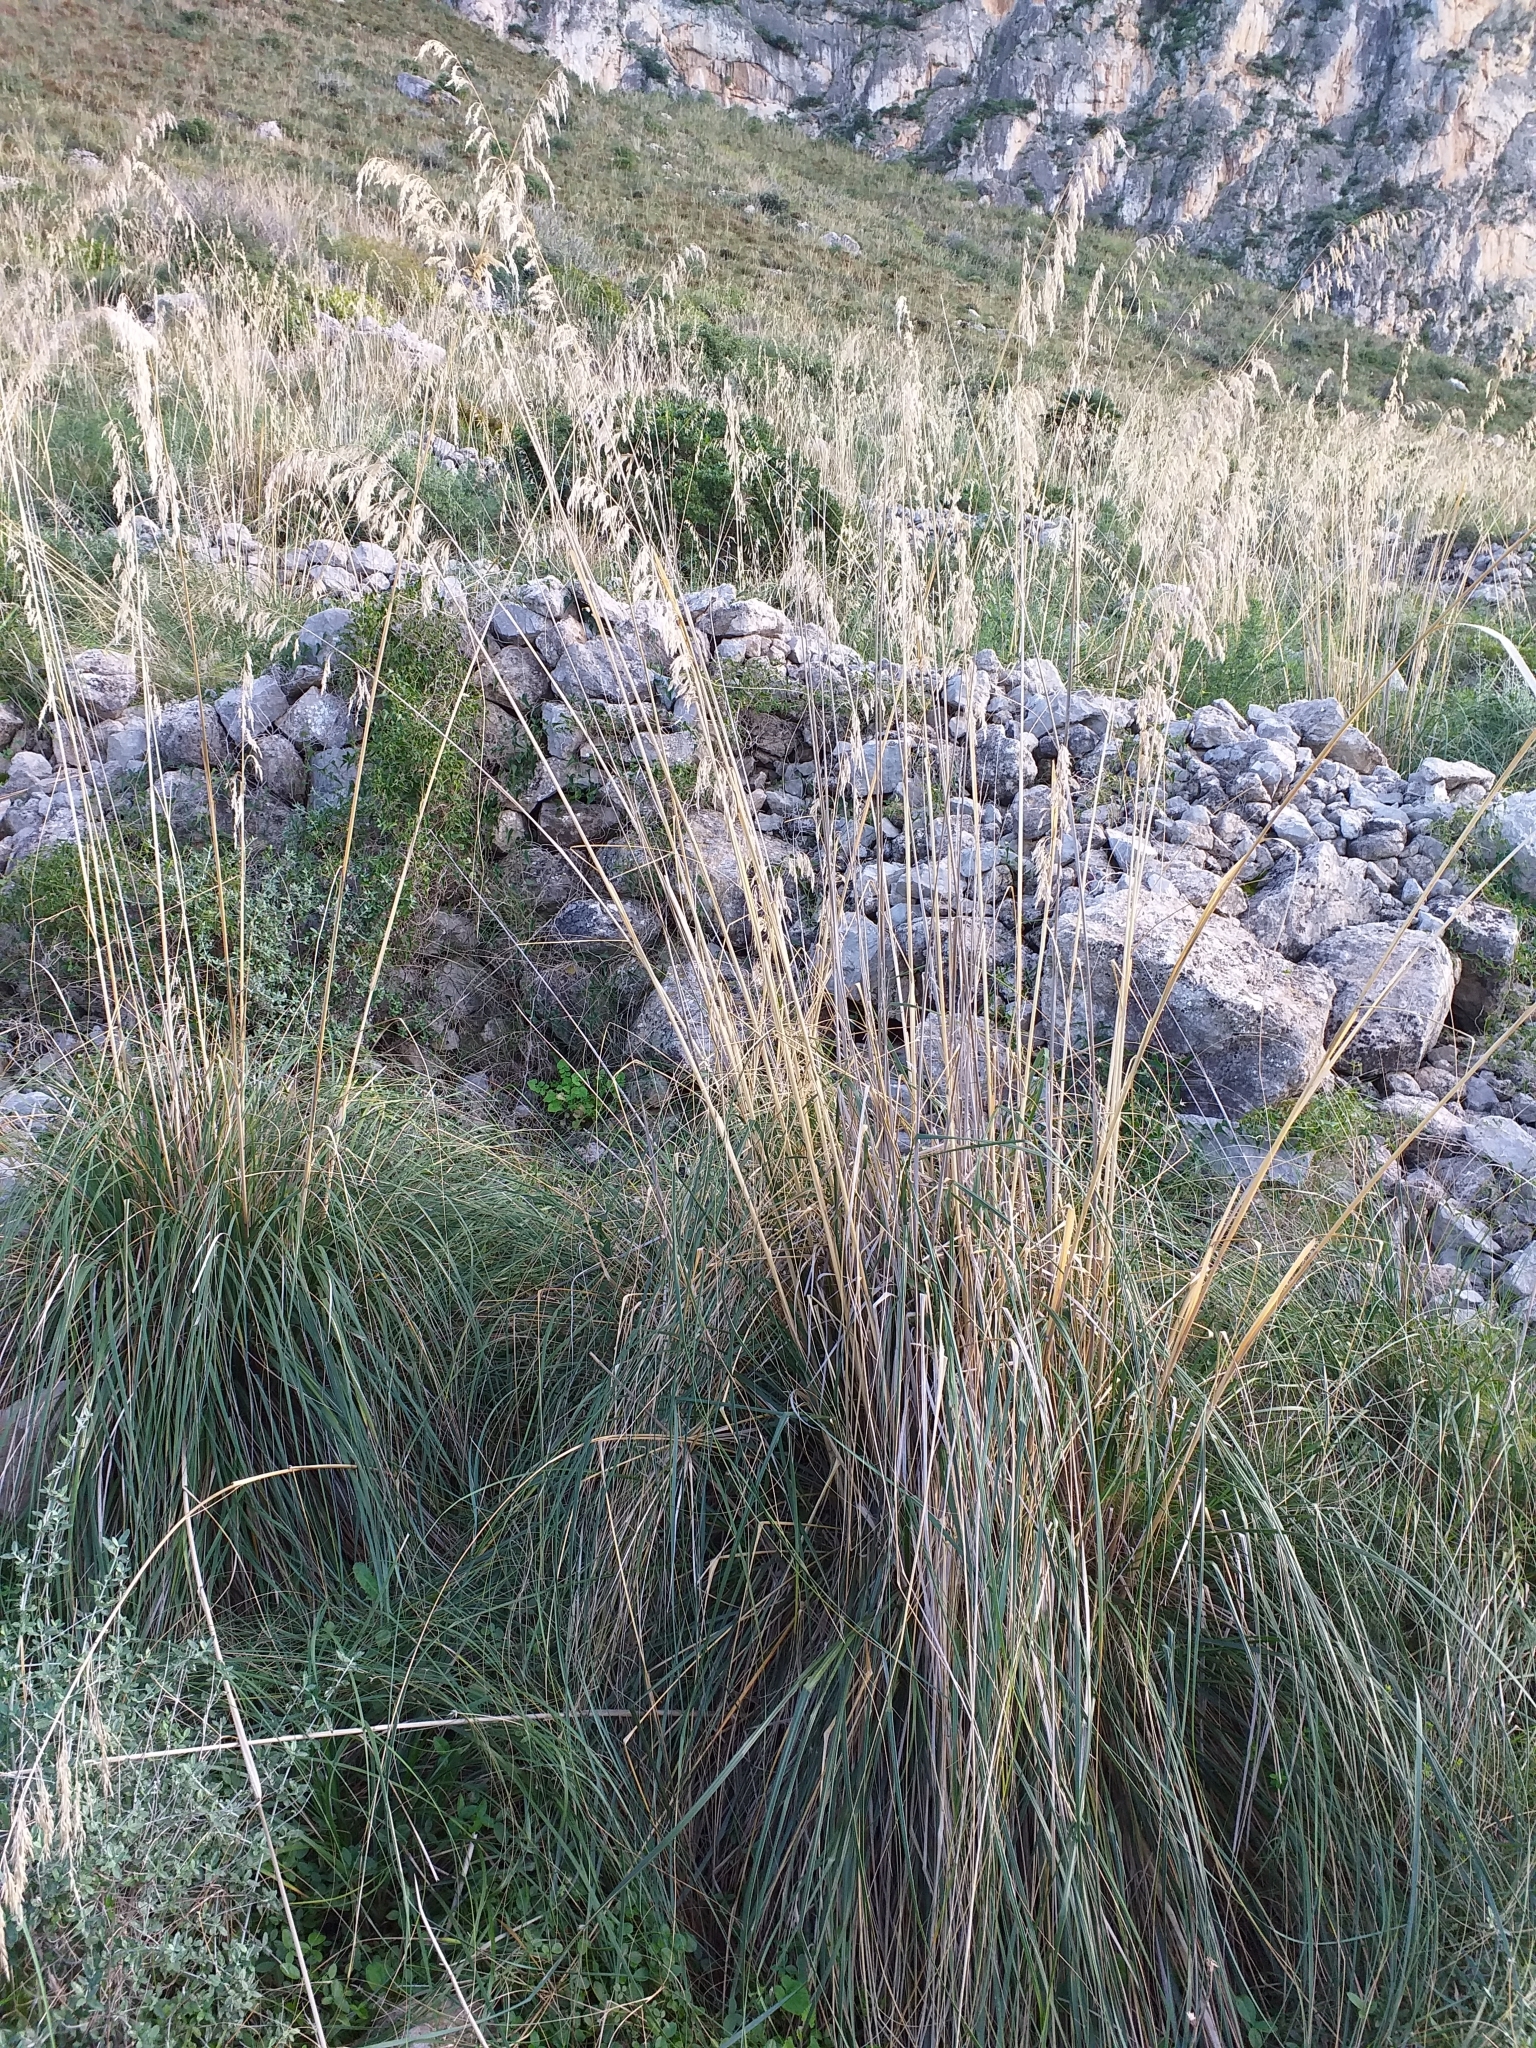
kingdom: Plantae
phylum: Tracheophyta
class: Liliopsida
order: Poales
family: Poaceae
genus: Ampelodesmos
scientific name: Ampelodesmos mauritanicus
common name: Mauritanian grass
